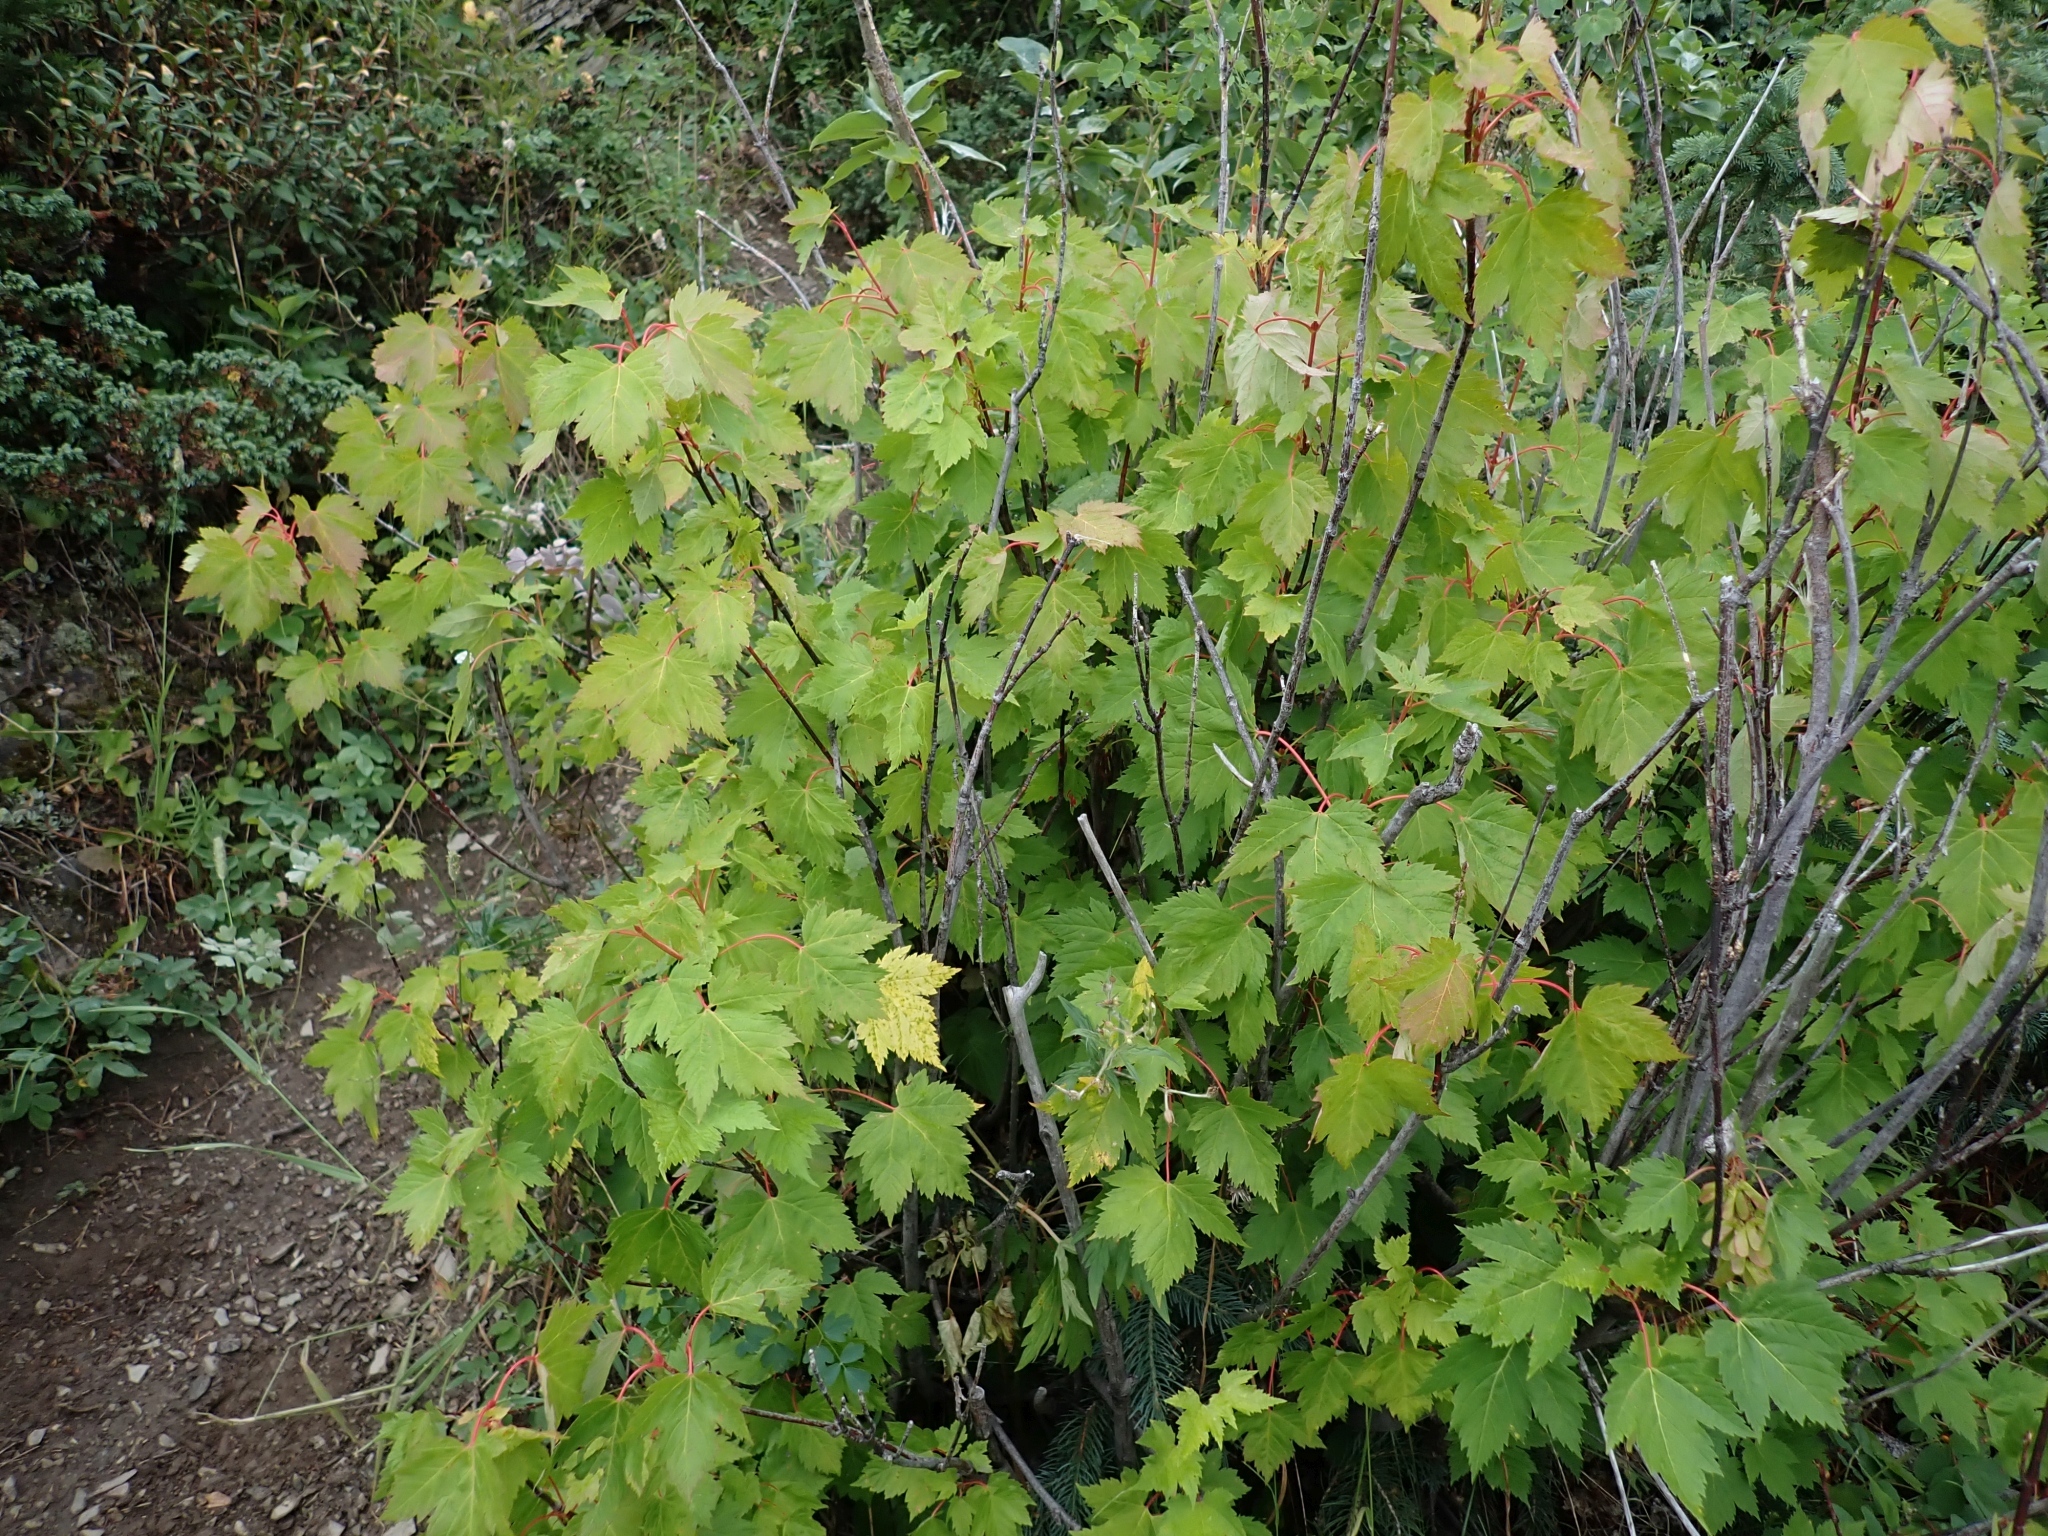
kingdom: Plantae
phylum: Tracheophyta
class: Magnoliopsida
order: Sapindales
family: Sapindaceae
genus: Acer
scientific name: Acer glabrum
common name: Rocky mountain maple
